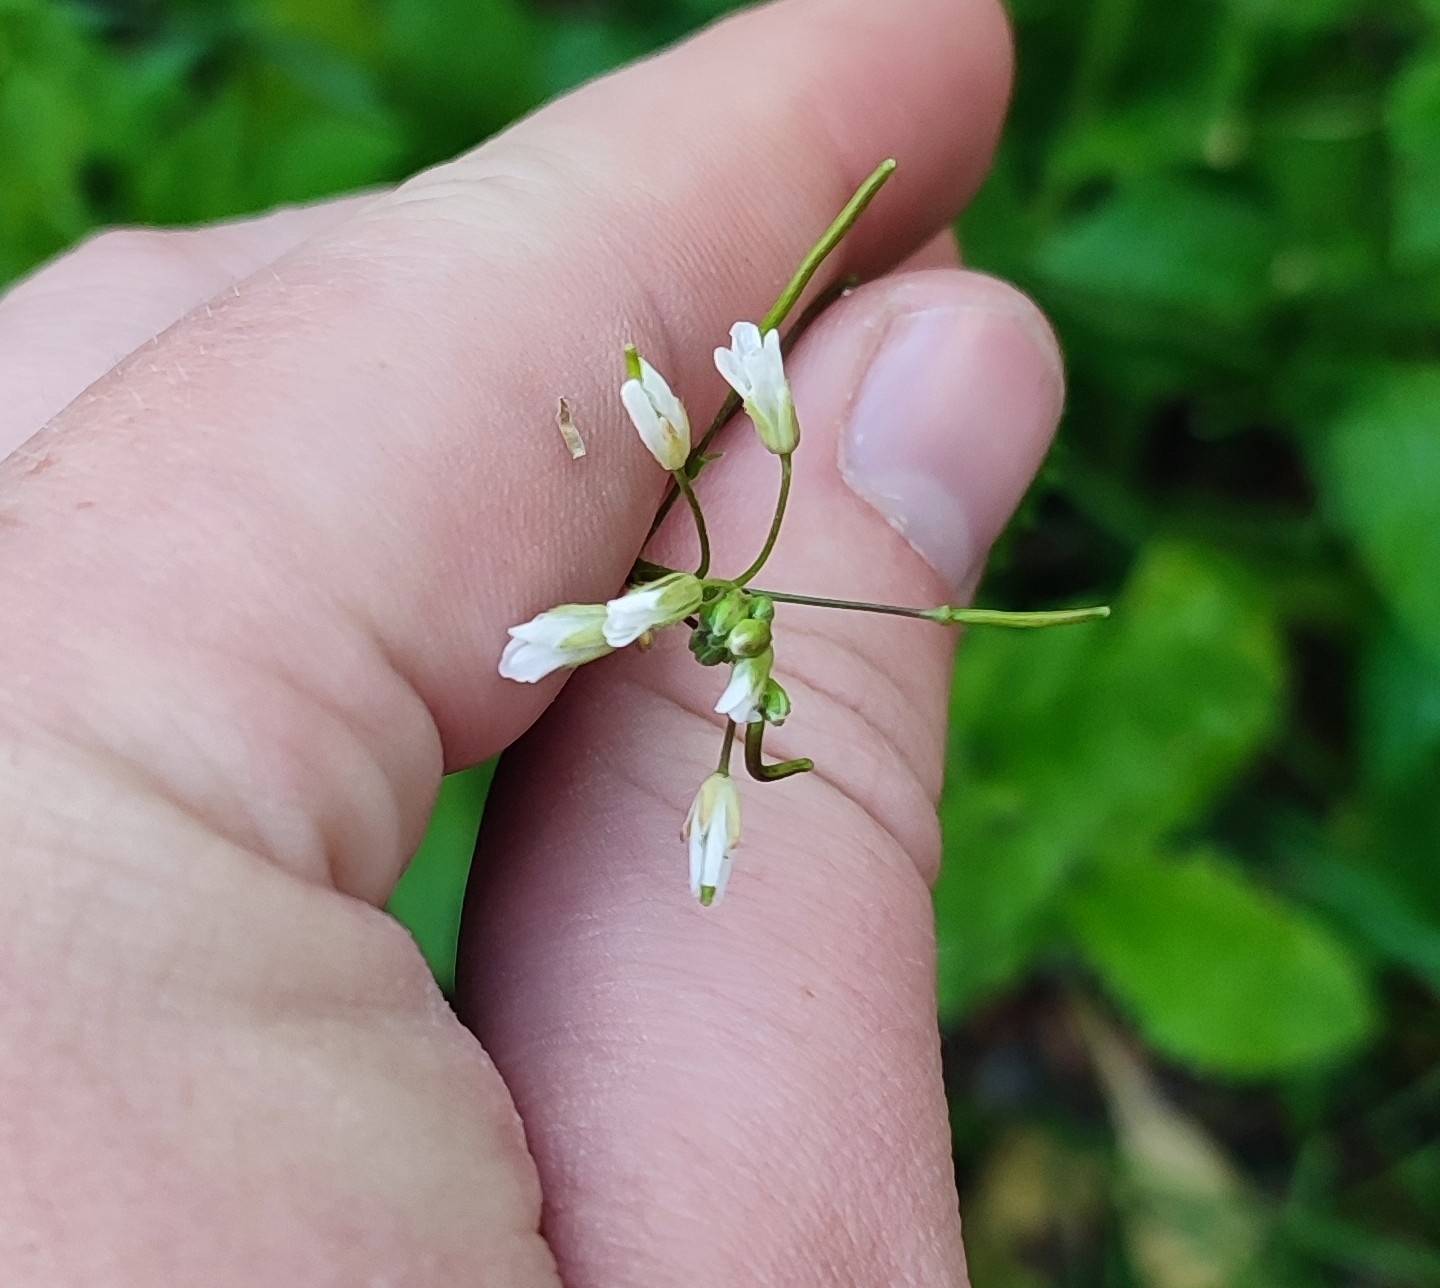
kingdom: Plantae
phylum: Tracheophyta
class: Magnoliopsida
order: Brassicales
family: Brassicaceae
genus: Catolobus
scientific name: Catolobus pendulus
